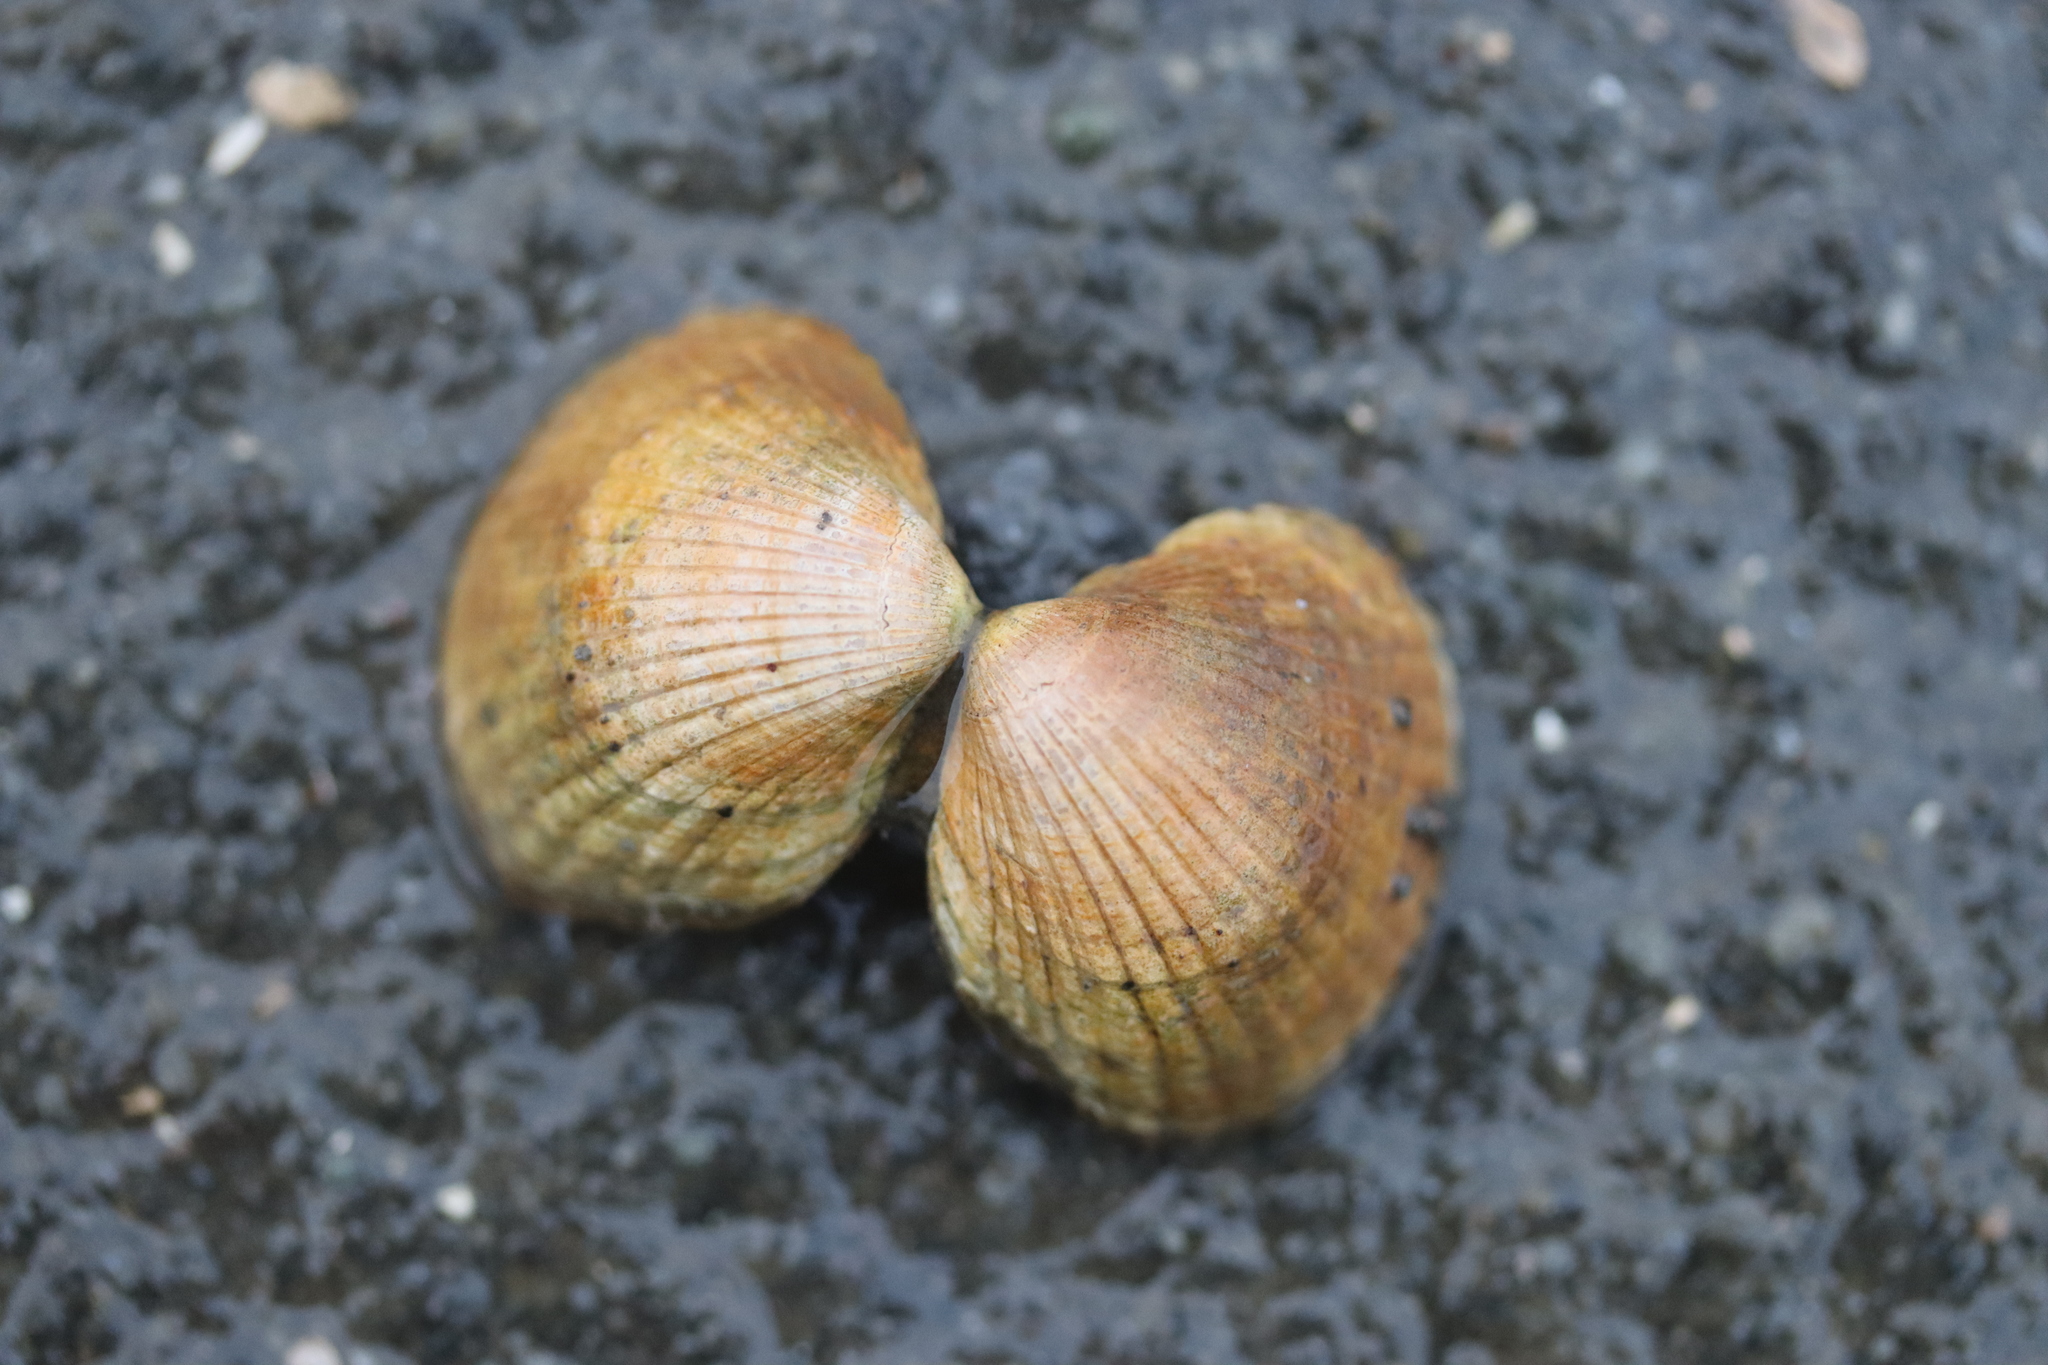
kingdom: Animalia
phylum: Mollusca
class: Bivalvia
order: Cardiida
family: Cardiidae
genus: Cerastoderma
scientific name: Cerastoderma edule
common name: Common cockle
